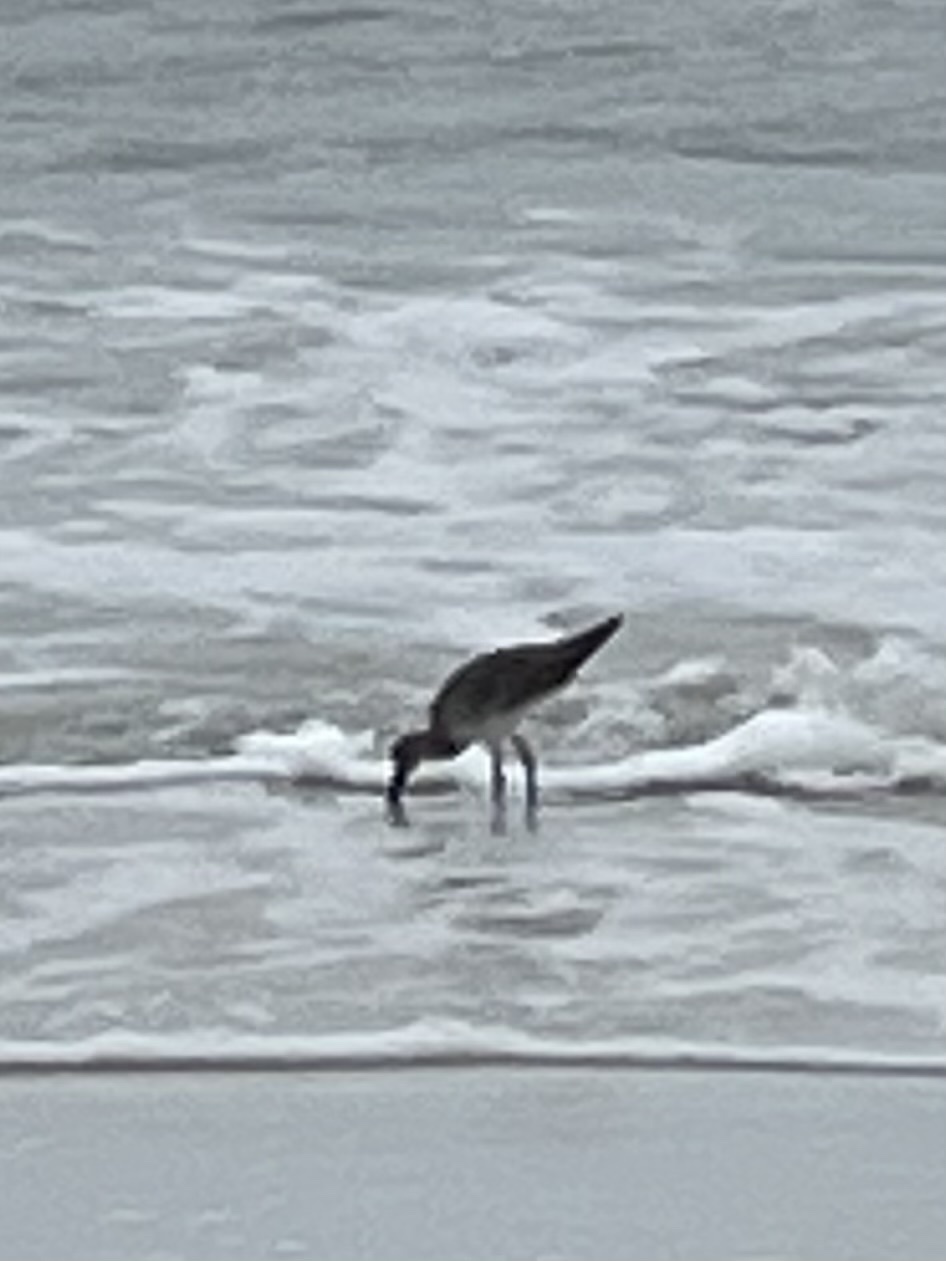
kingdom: Animalia
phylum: Chordata
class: Aves
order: Charadriiformes
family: Scolopacidae
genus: Tringa
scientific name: Tringa semipalmata
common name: Willet
